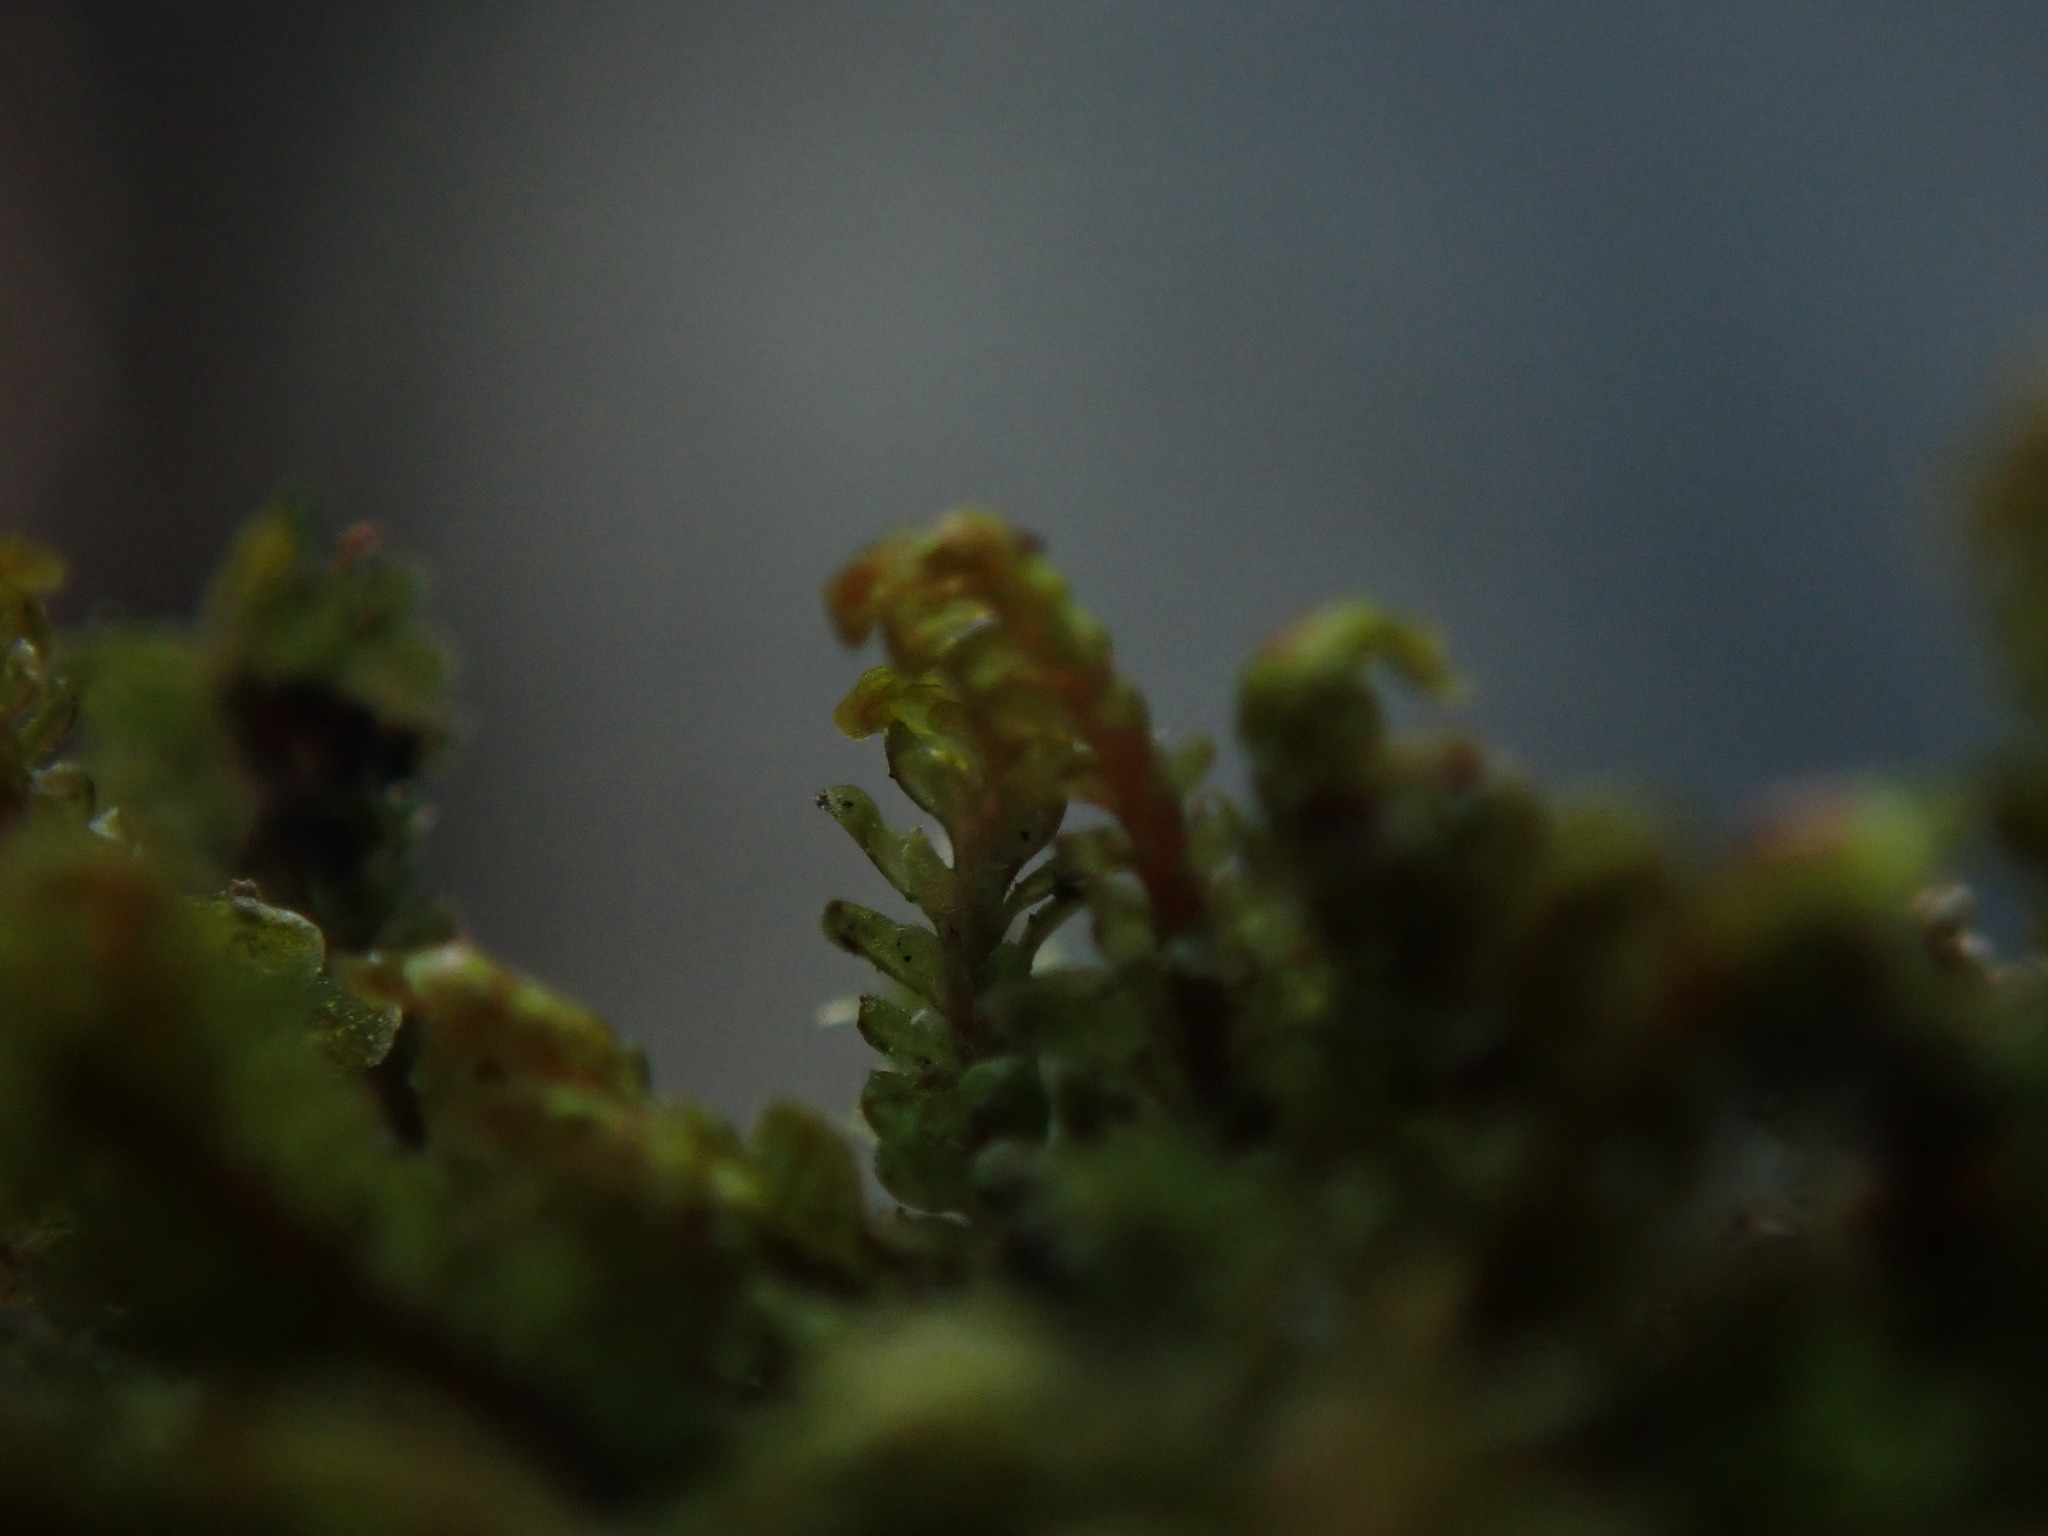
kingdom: Plantae
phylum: Marchantiophyta
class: Jungermanniopsida
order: Jungermanniales
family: Scapaniaceae
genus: Diplophyllum
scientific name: Diplophyllum albicans
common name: White earwort
